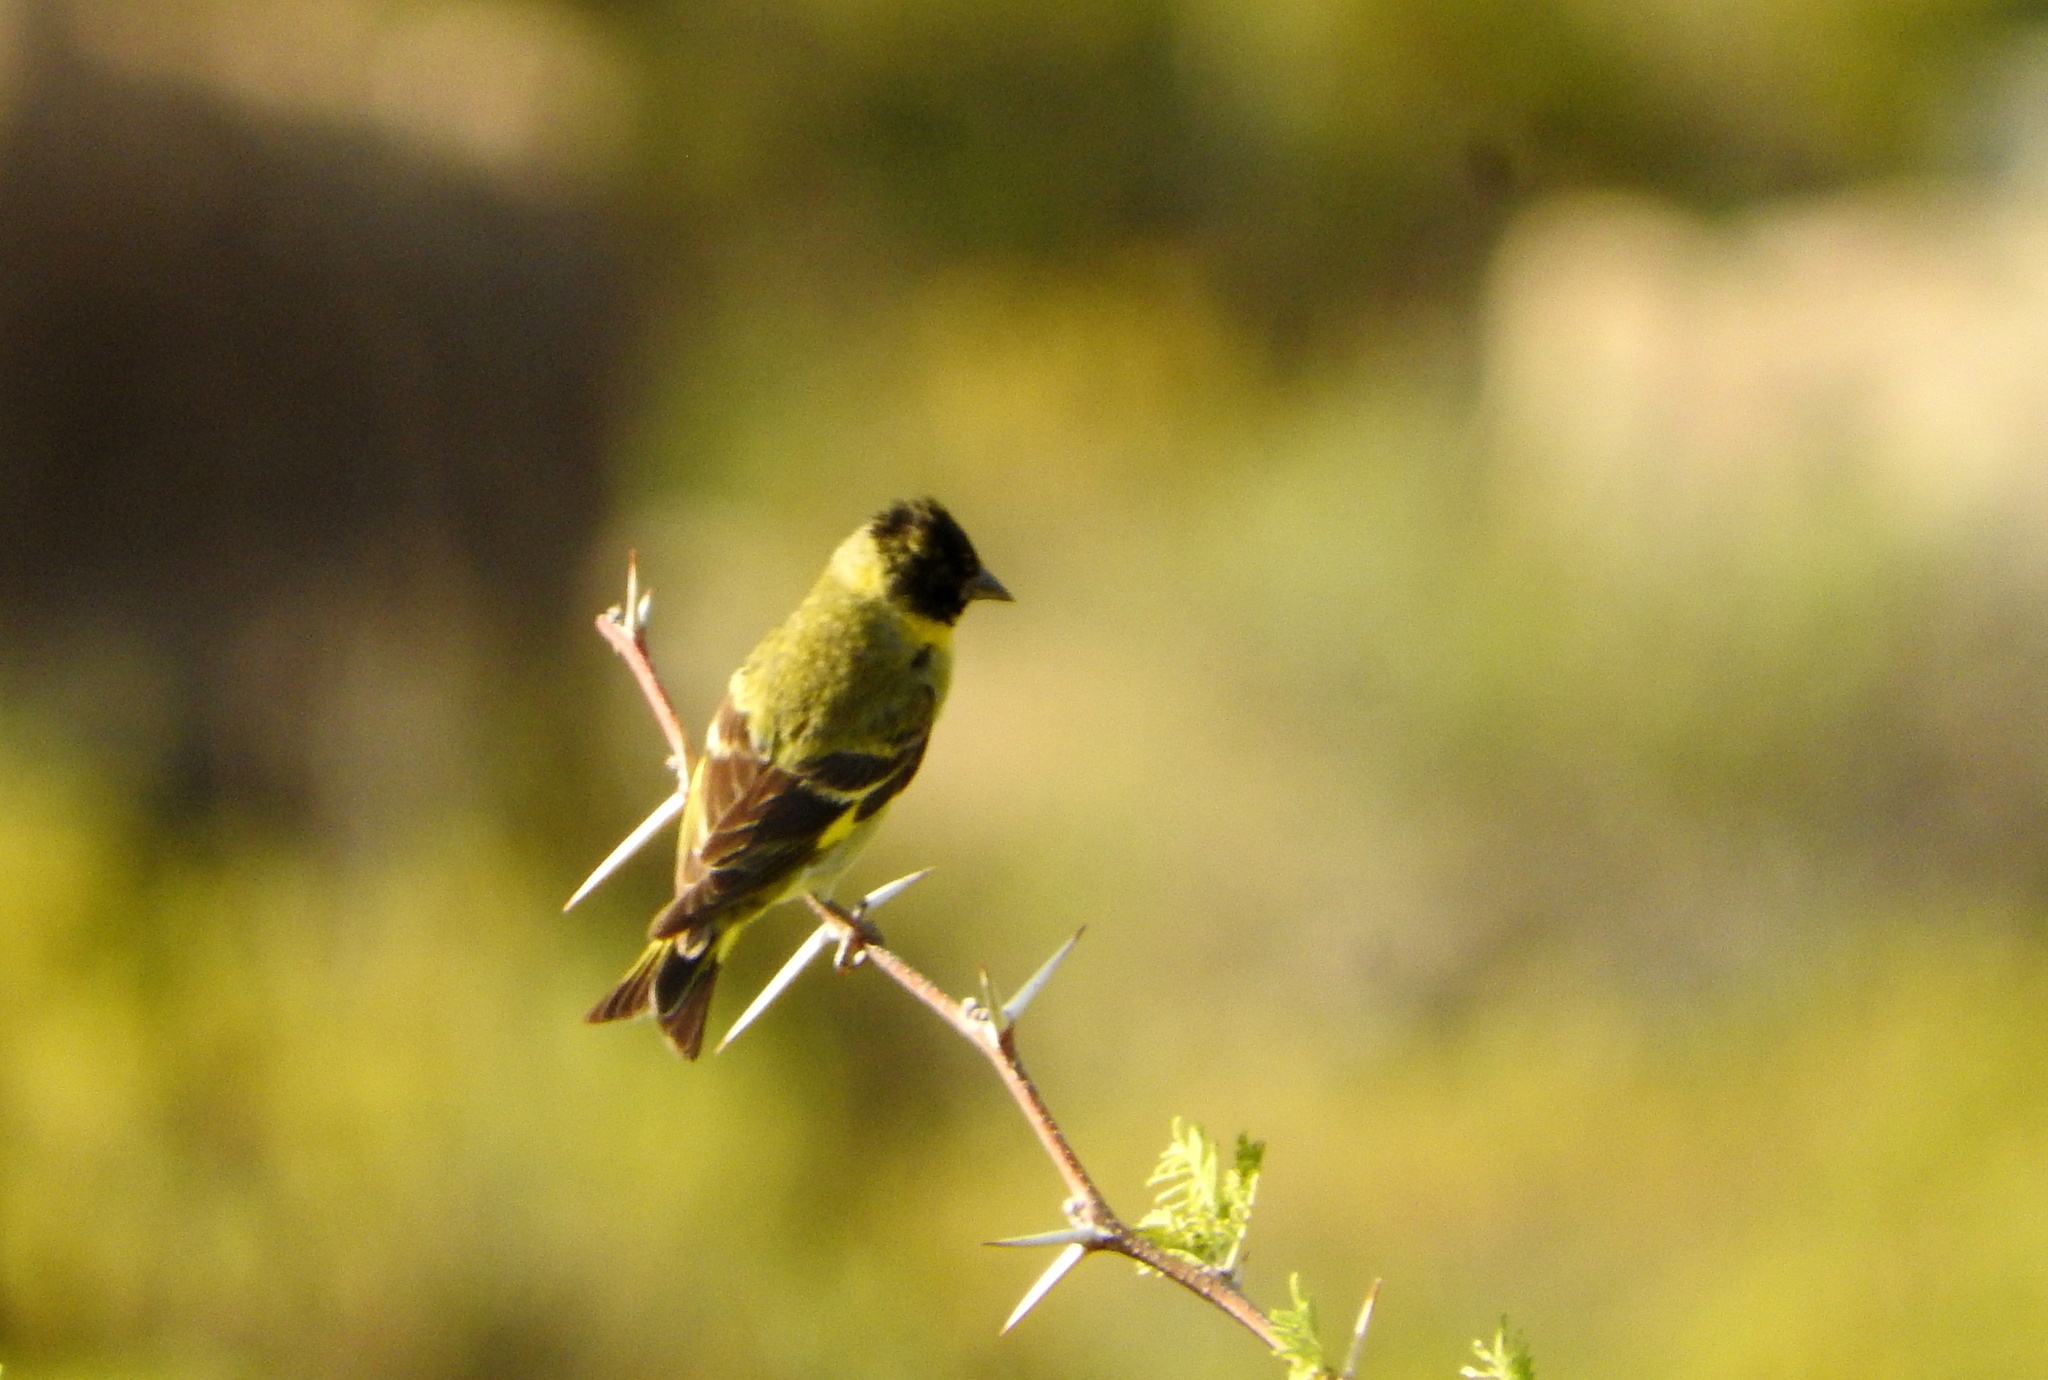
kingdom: Animalia
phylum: Chordata
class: Aves
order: Passeriformes
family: Fringillidae
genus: Spinus
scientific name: Spinus magellanicus
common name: Hooded siskin
